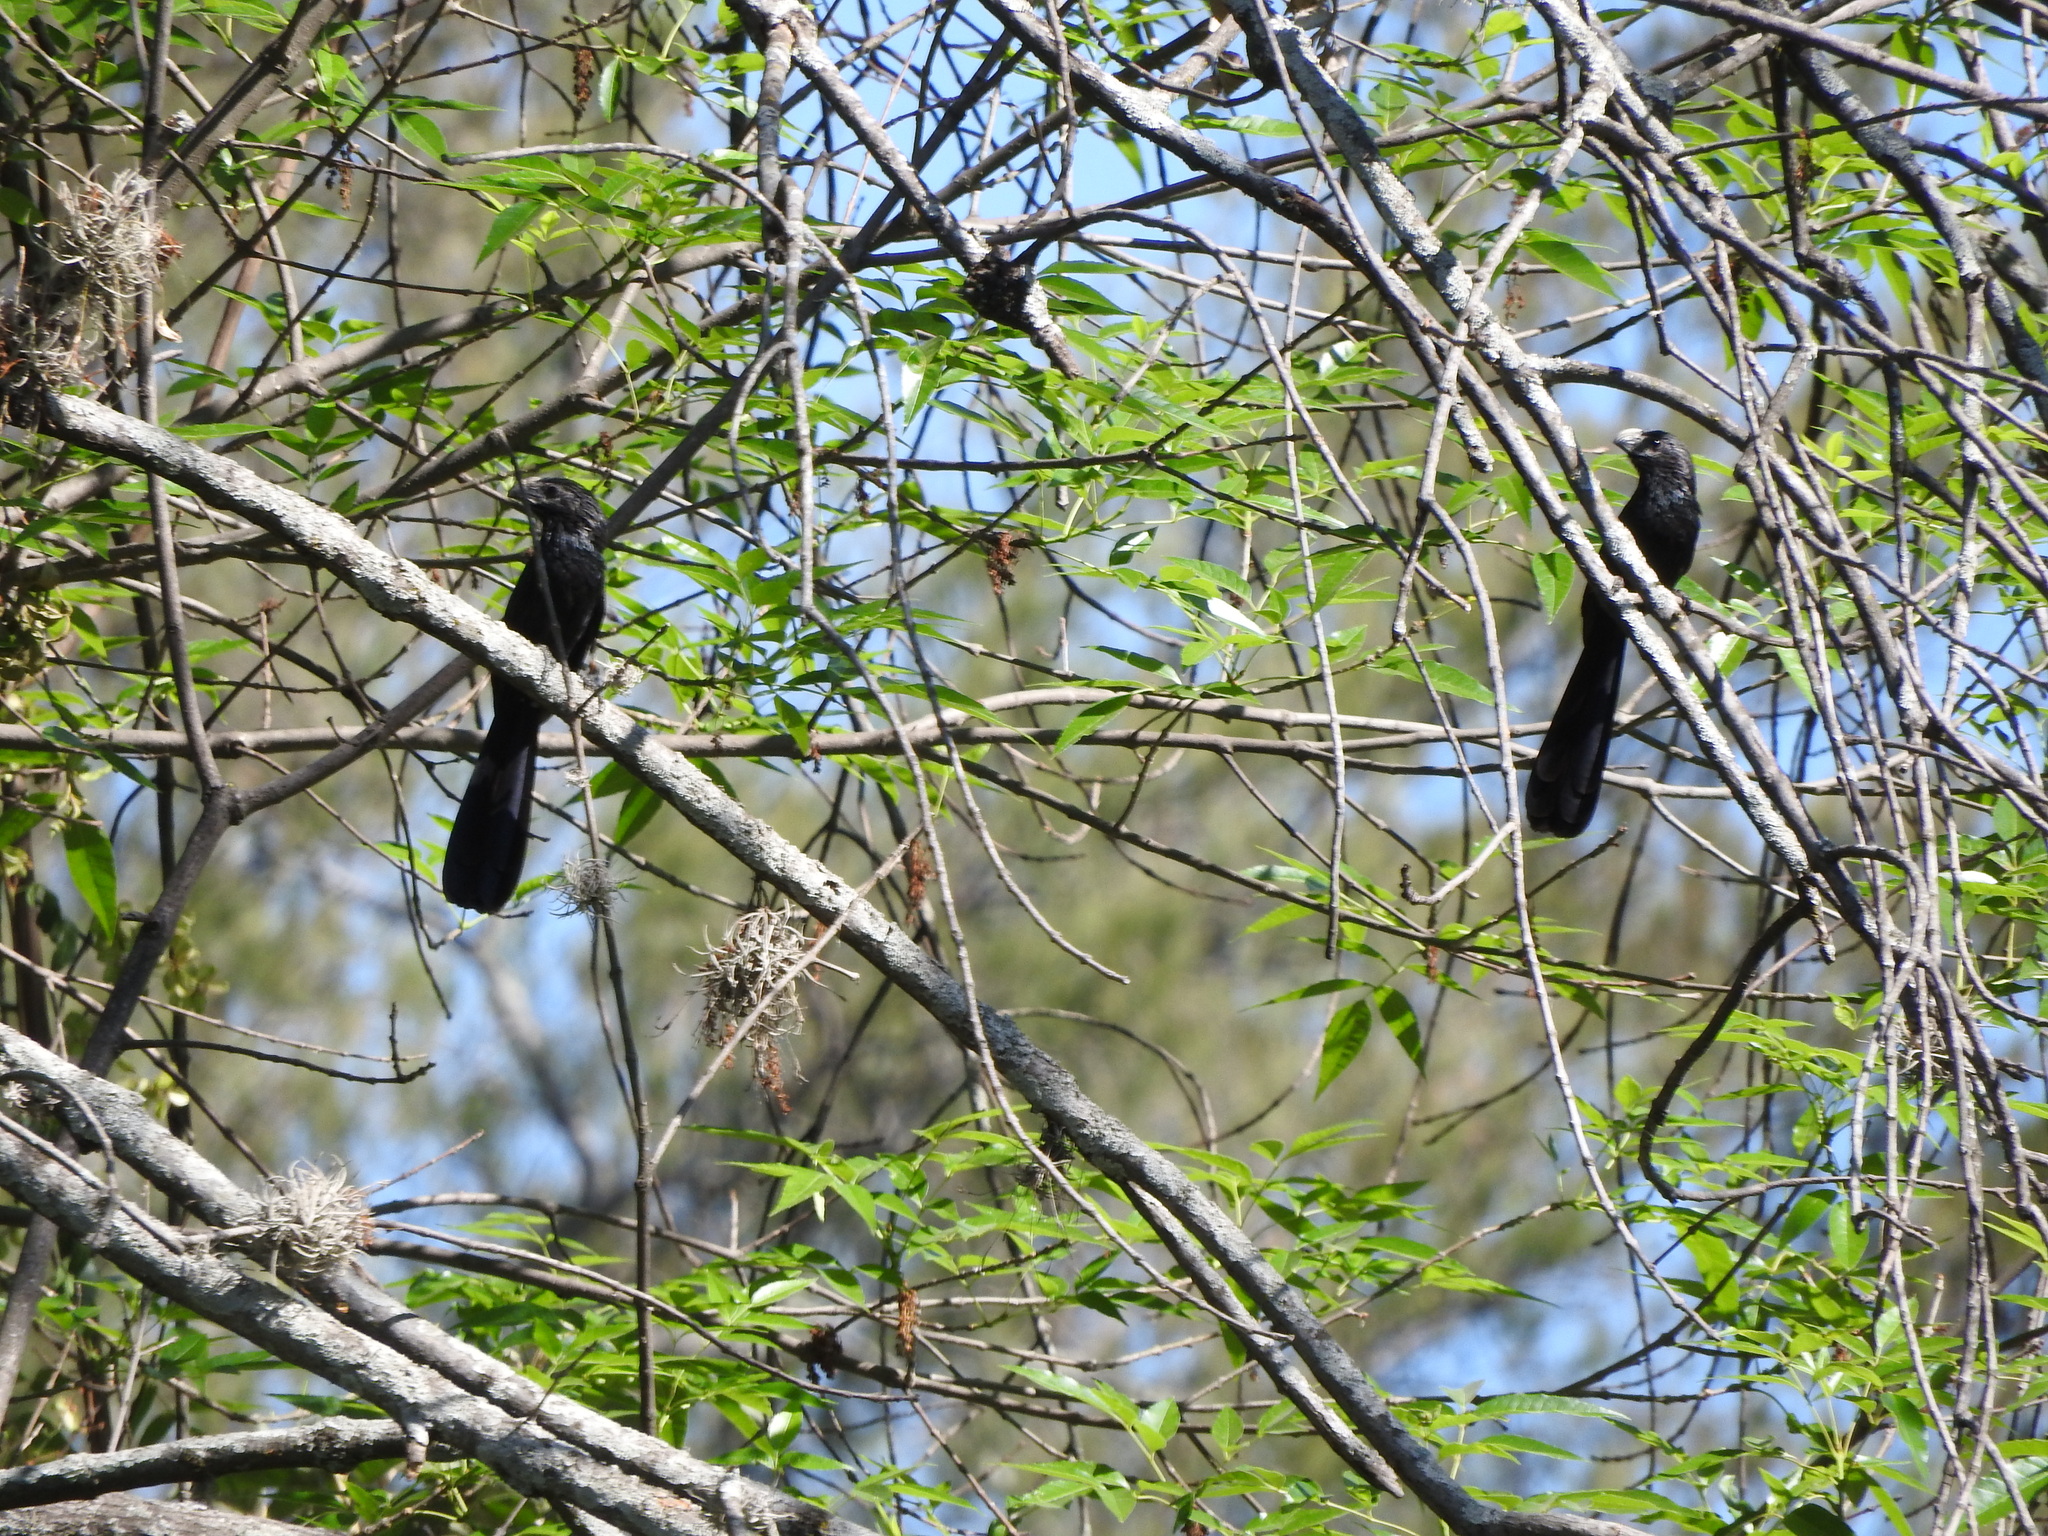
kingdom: Animalia
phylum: Chordata
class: Aves
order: Cuculiformes
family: Cuculidae
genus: Crotophaga
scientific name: Crotophaga sulcirostris
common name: Groove-billed ani
